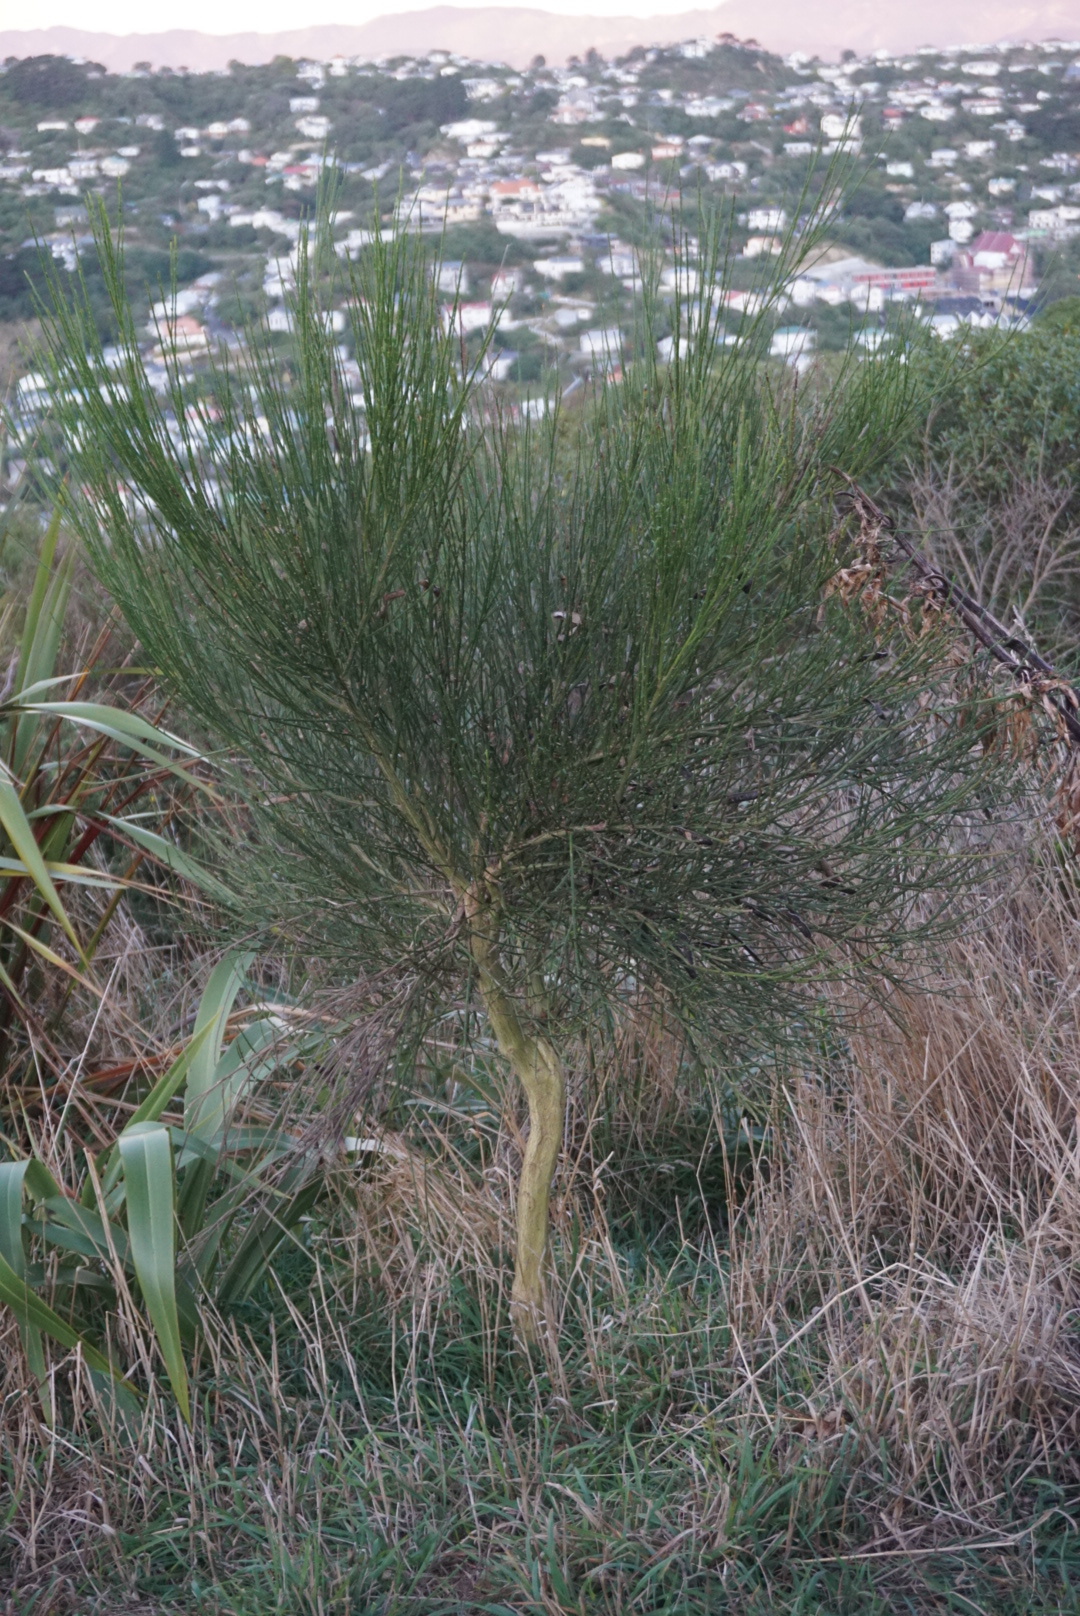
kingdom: Plantae
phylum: Tracheophyta
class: Magnoliopsida
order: Fabales
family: Fabaceae
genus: Cytisus
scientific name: Cytisus scoparius
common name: Scotch broom
